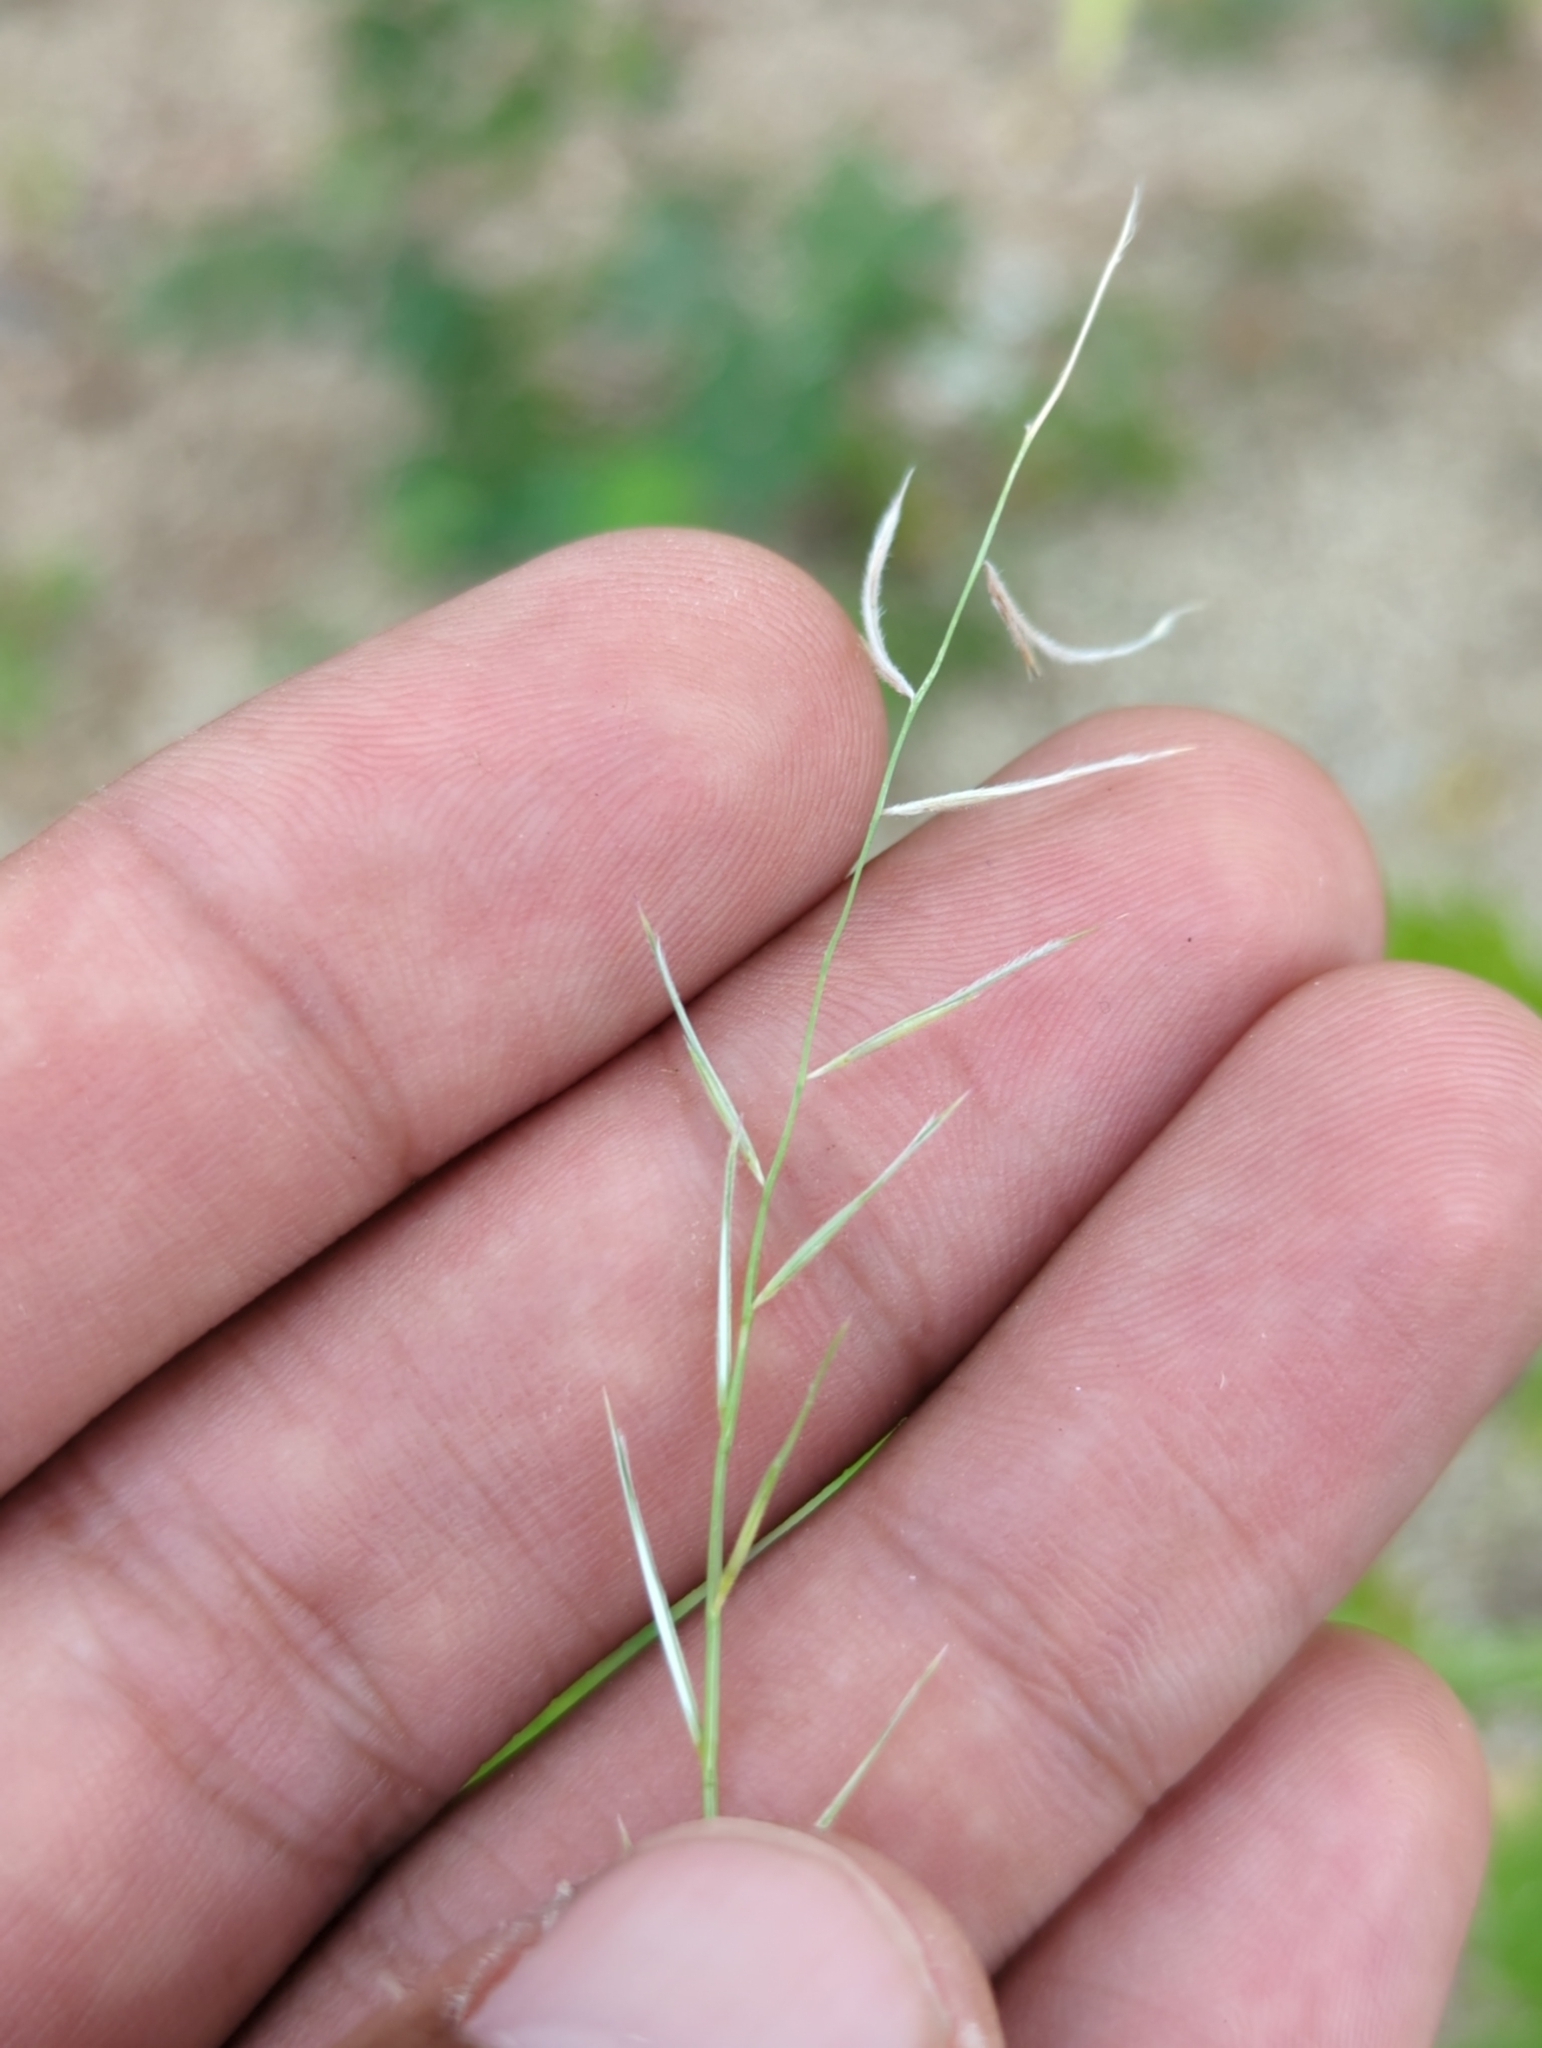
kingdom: Plantae
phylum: Tracheophyta
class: Liliopsida
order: Poales
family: Poaceae
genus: Bouteloua
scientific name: Bouteloua aristidoides
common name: Needle grama
